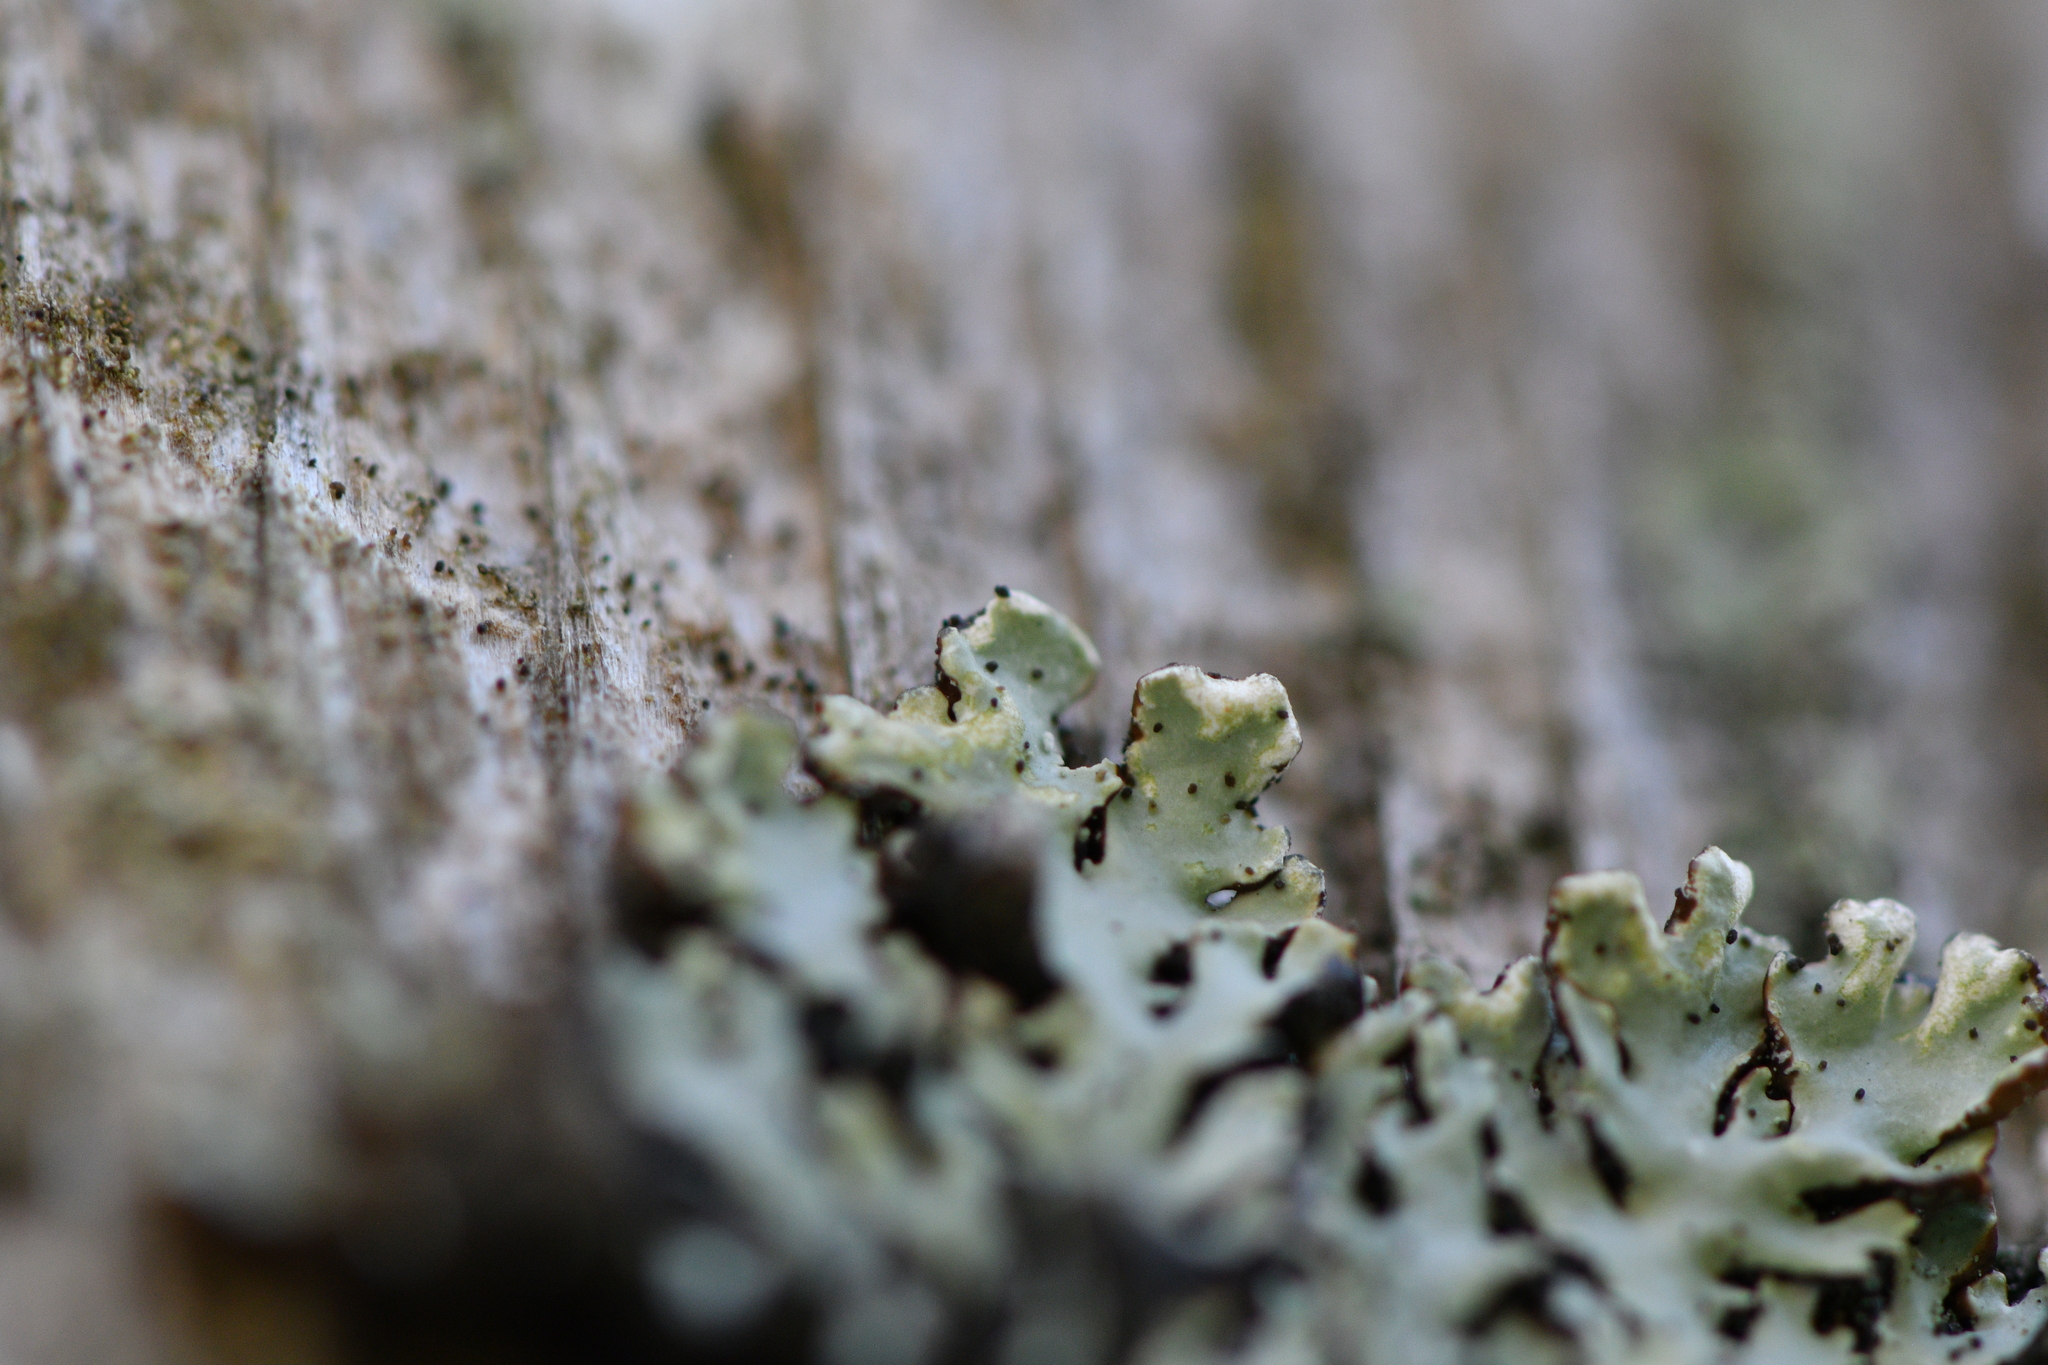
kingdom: Fungi
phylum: Ascomycota
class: Lecanoromycetes
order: Lecanorales
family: Parmeliaceae
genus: Hypogymnia
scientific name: Hypogymnia physodes
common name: Dark crottle
